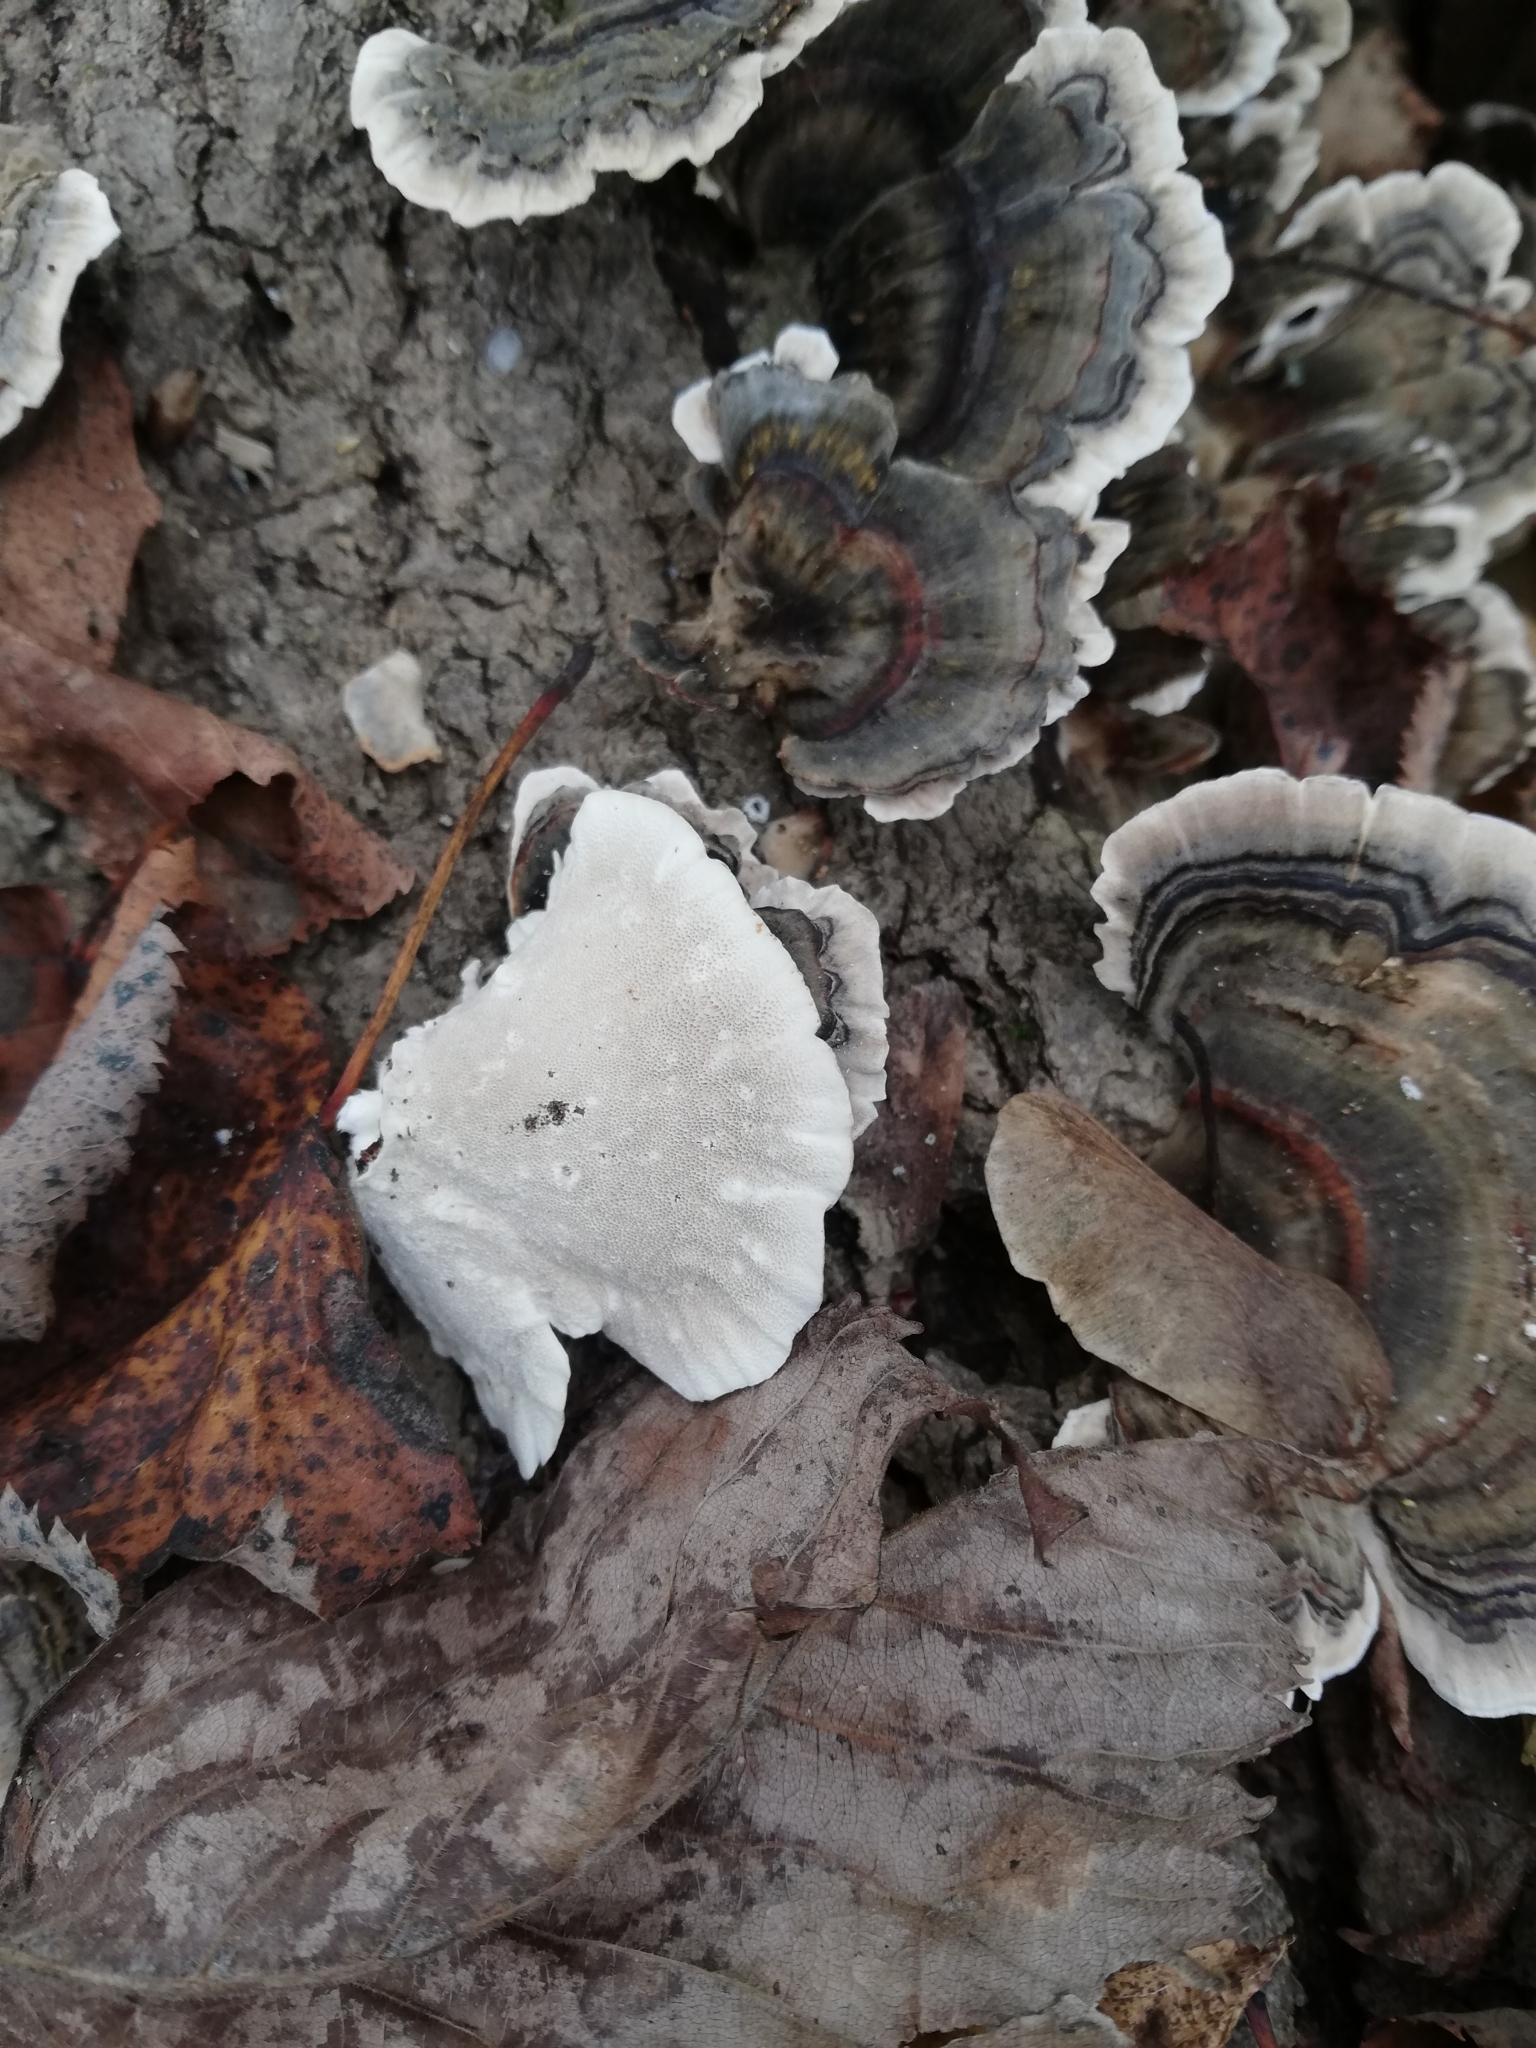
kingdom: Fungi
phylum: Basidiomycota
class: Agaricomycetes
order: Polyporales
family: Polyporaceae
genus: Trametes
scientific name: Trametes versicolor
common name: Turkeytail
